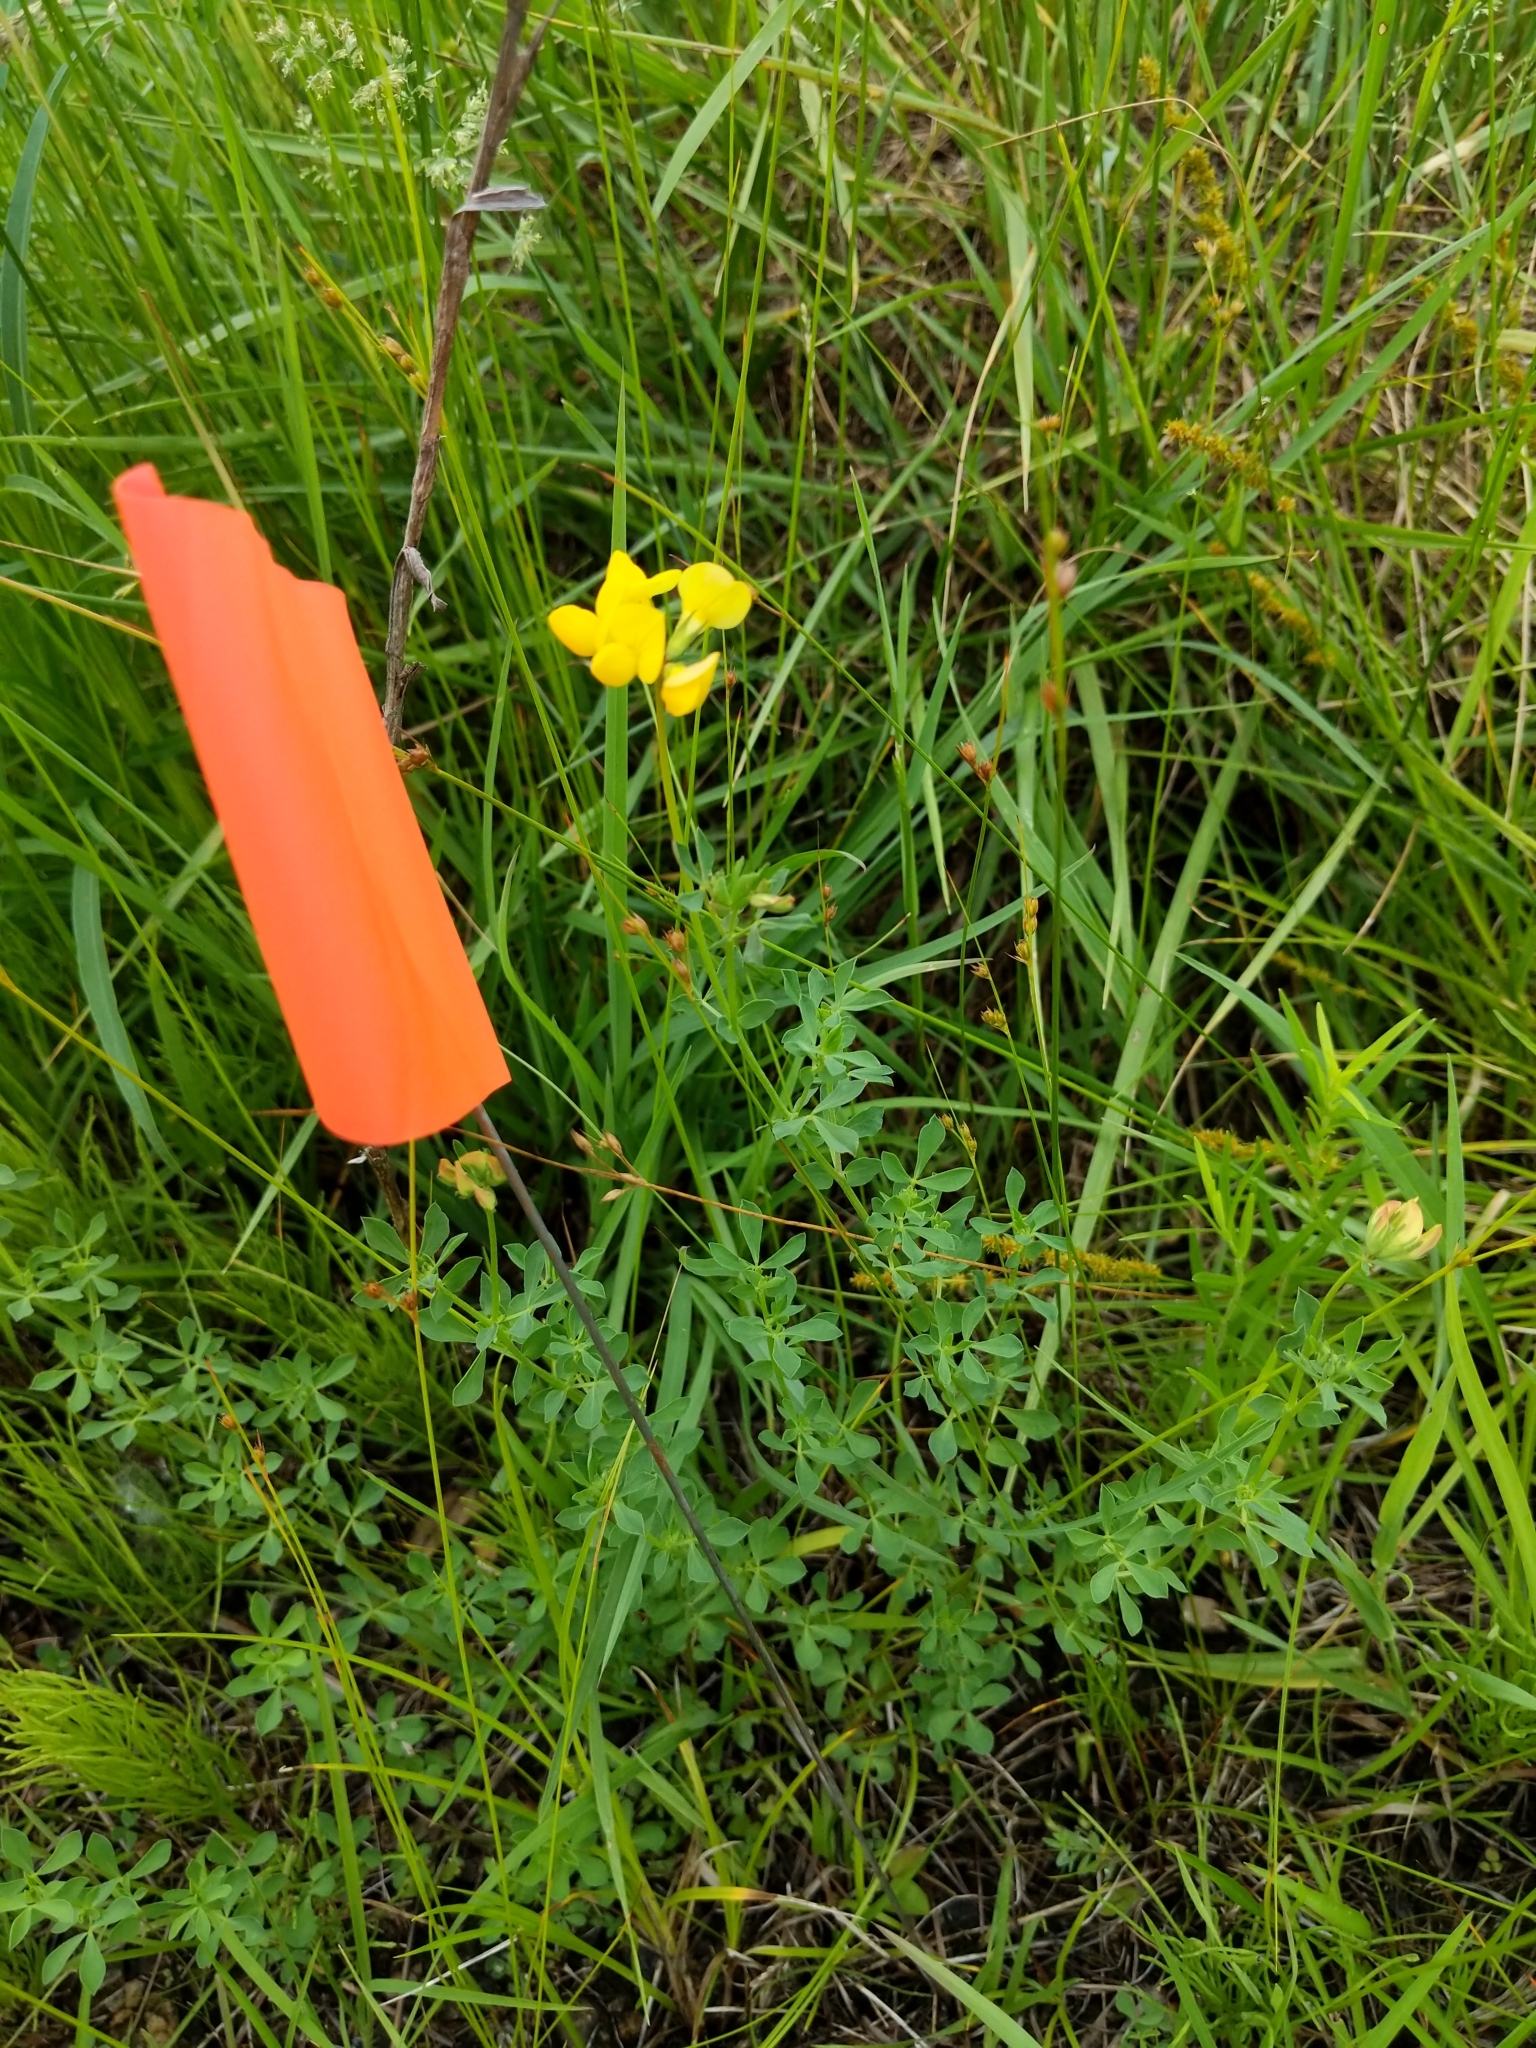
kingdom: Plantae
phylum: Tracheophyta
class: Magnoliopsida
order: Fabales
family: Fabaceae
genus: Lotus
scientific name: Lotus corniculatus
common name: Common bird's-foot-trefoil
